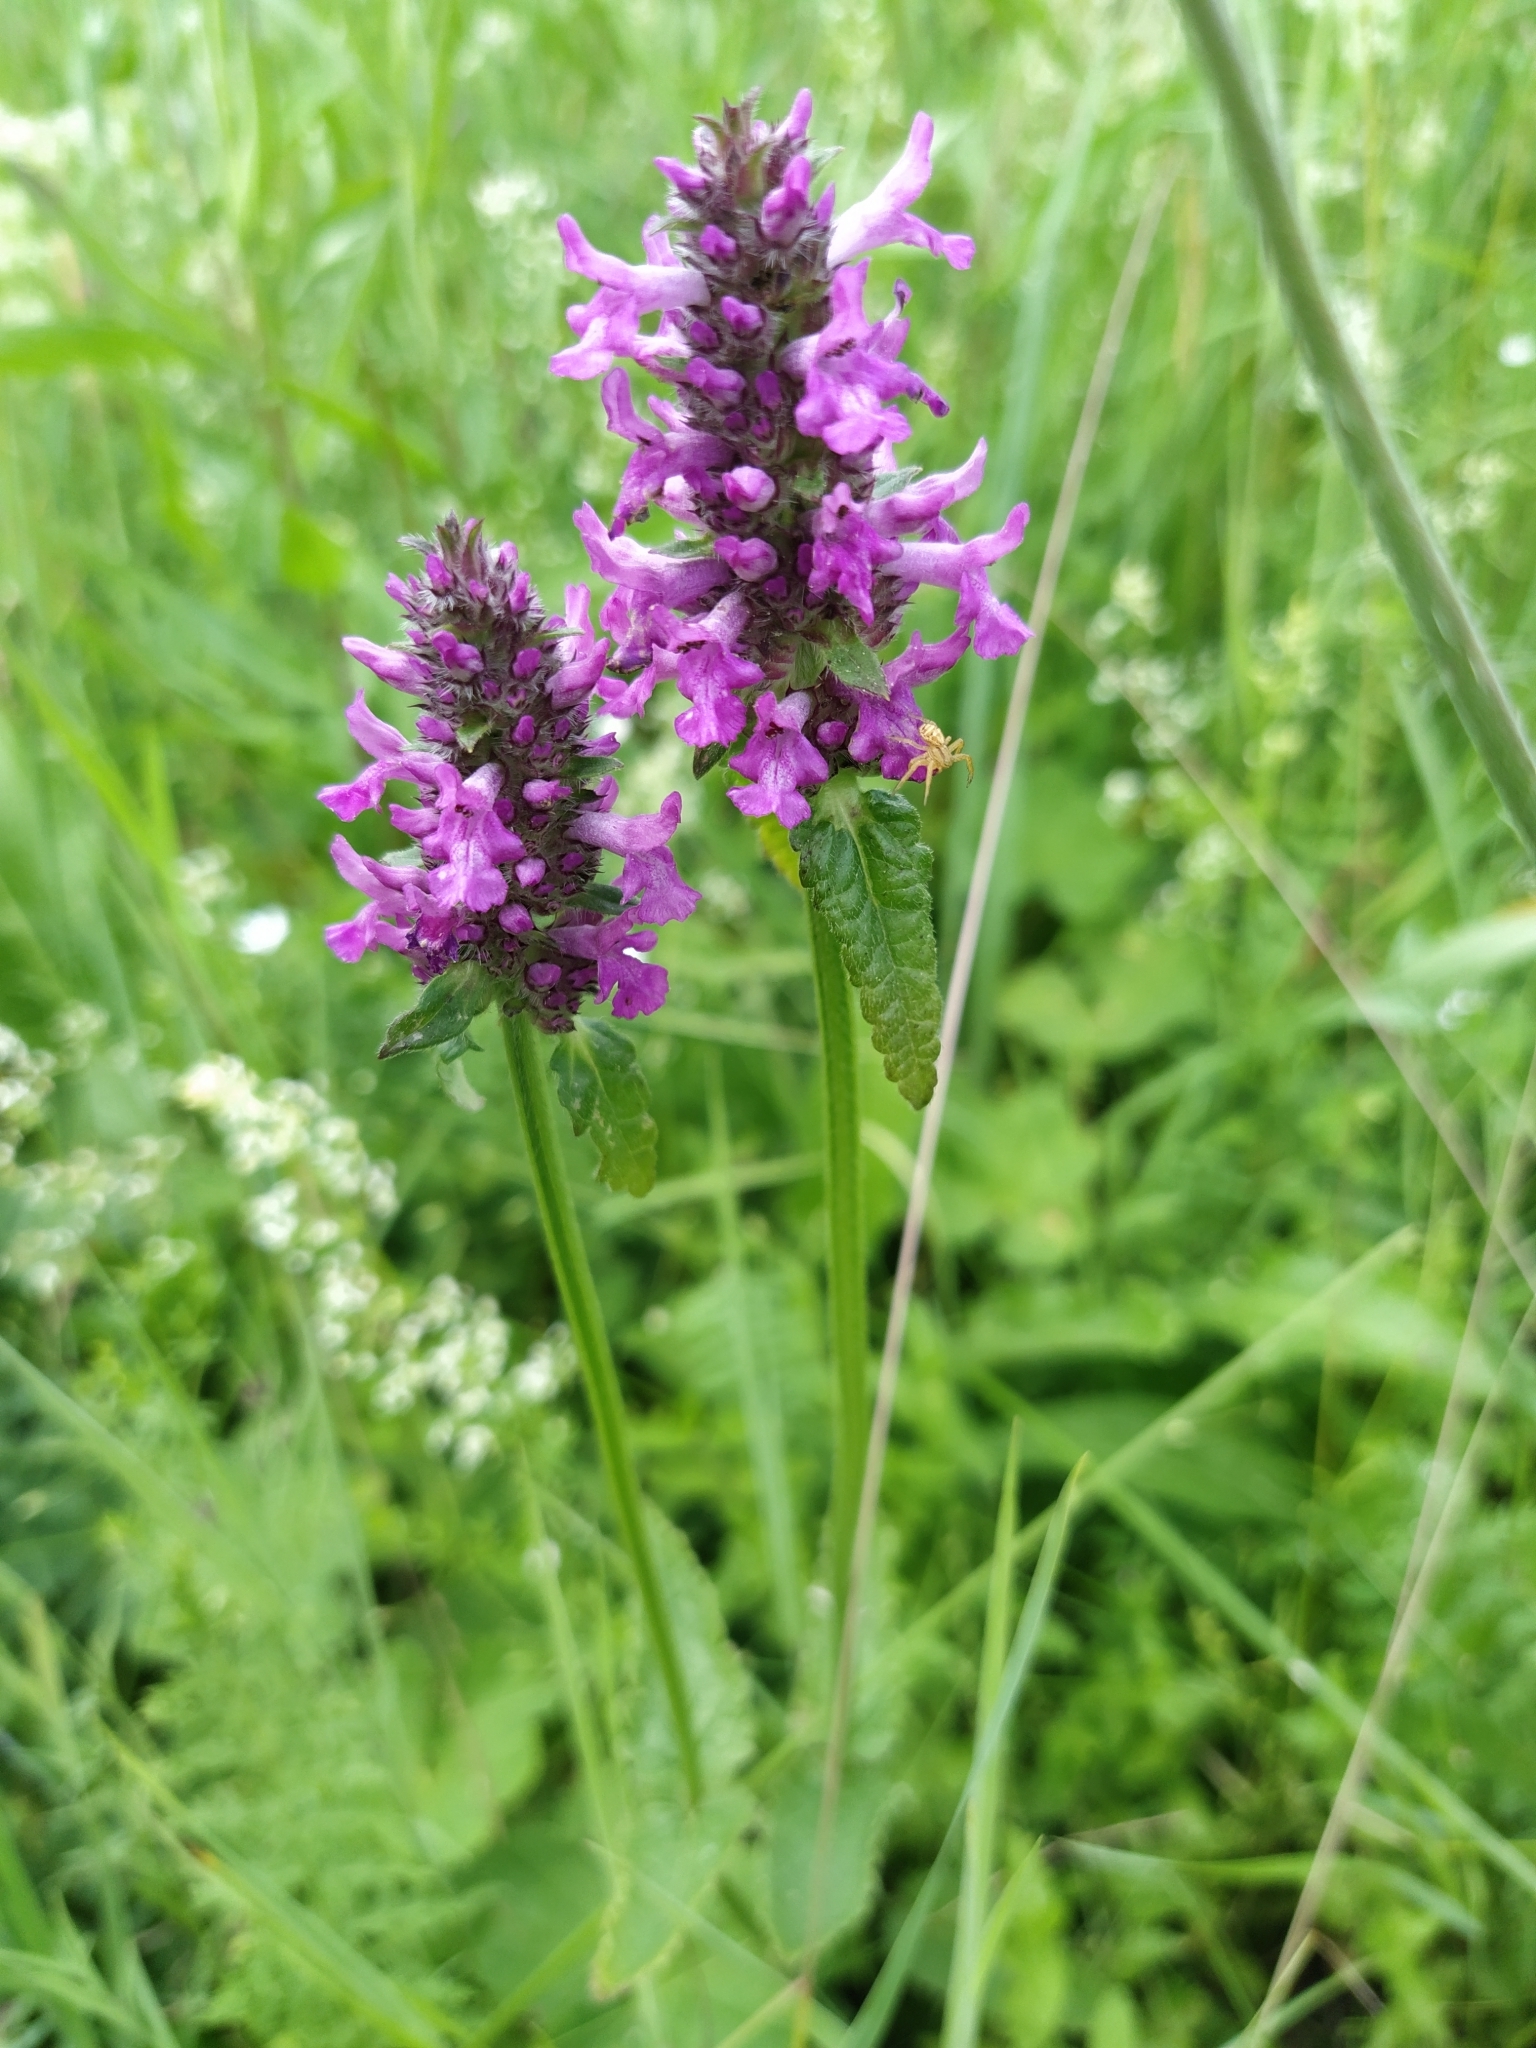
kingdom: Plantae
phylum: Tracheophyta
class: Magnoliopsida
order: Lamiales
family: Lamiaceae
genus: Betonica
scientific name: Betonica officinalis
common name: Bishop's-wort
